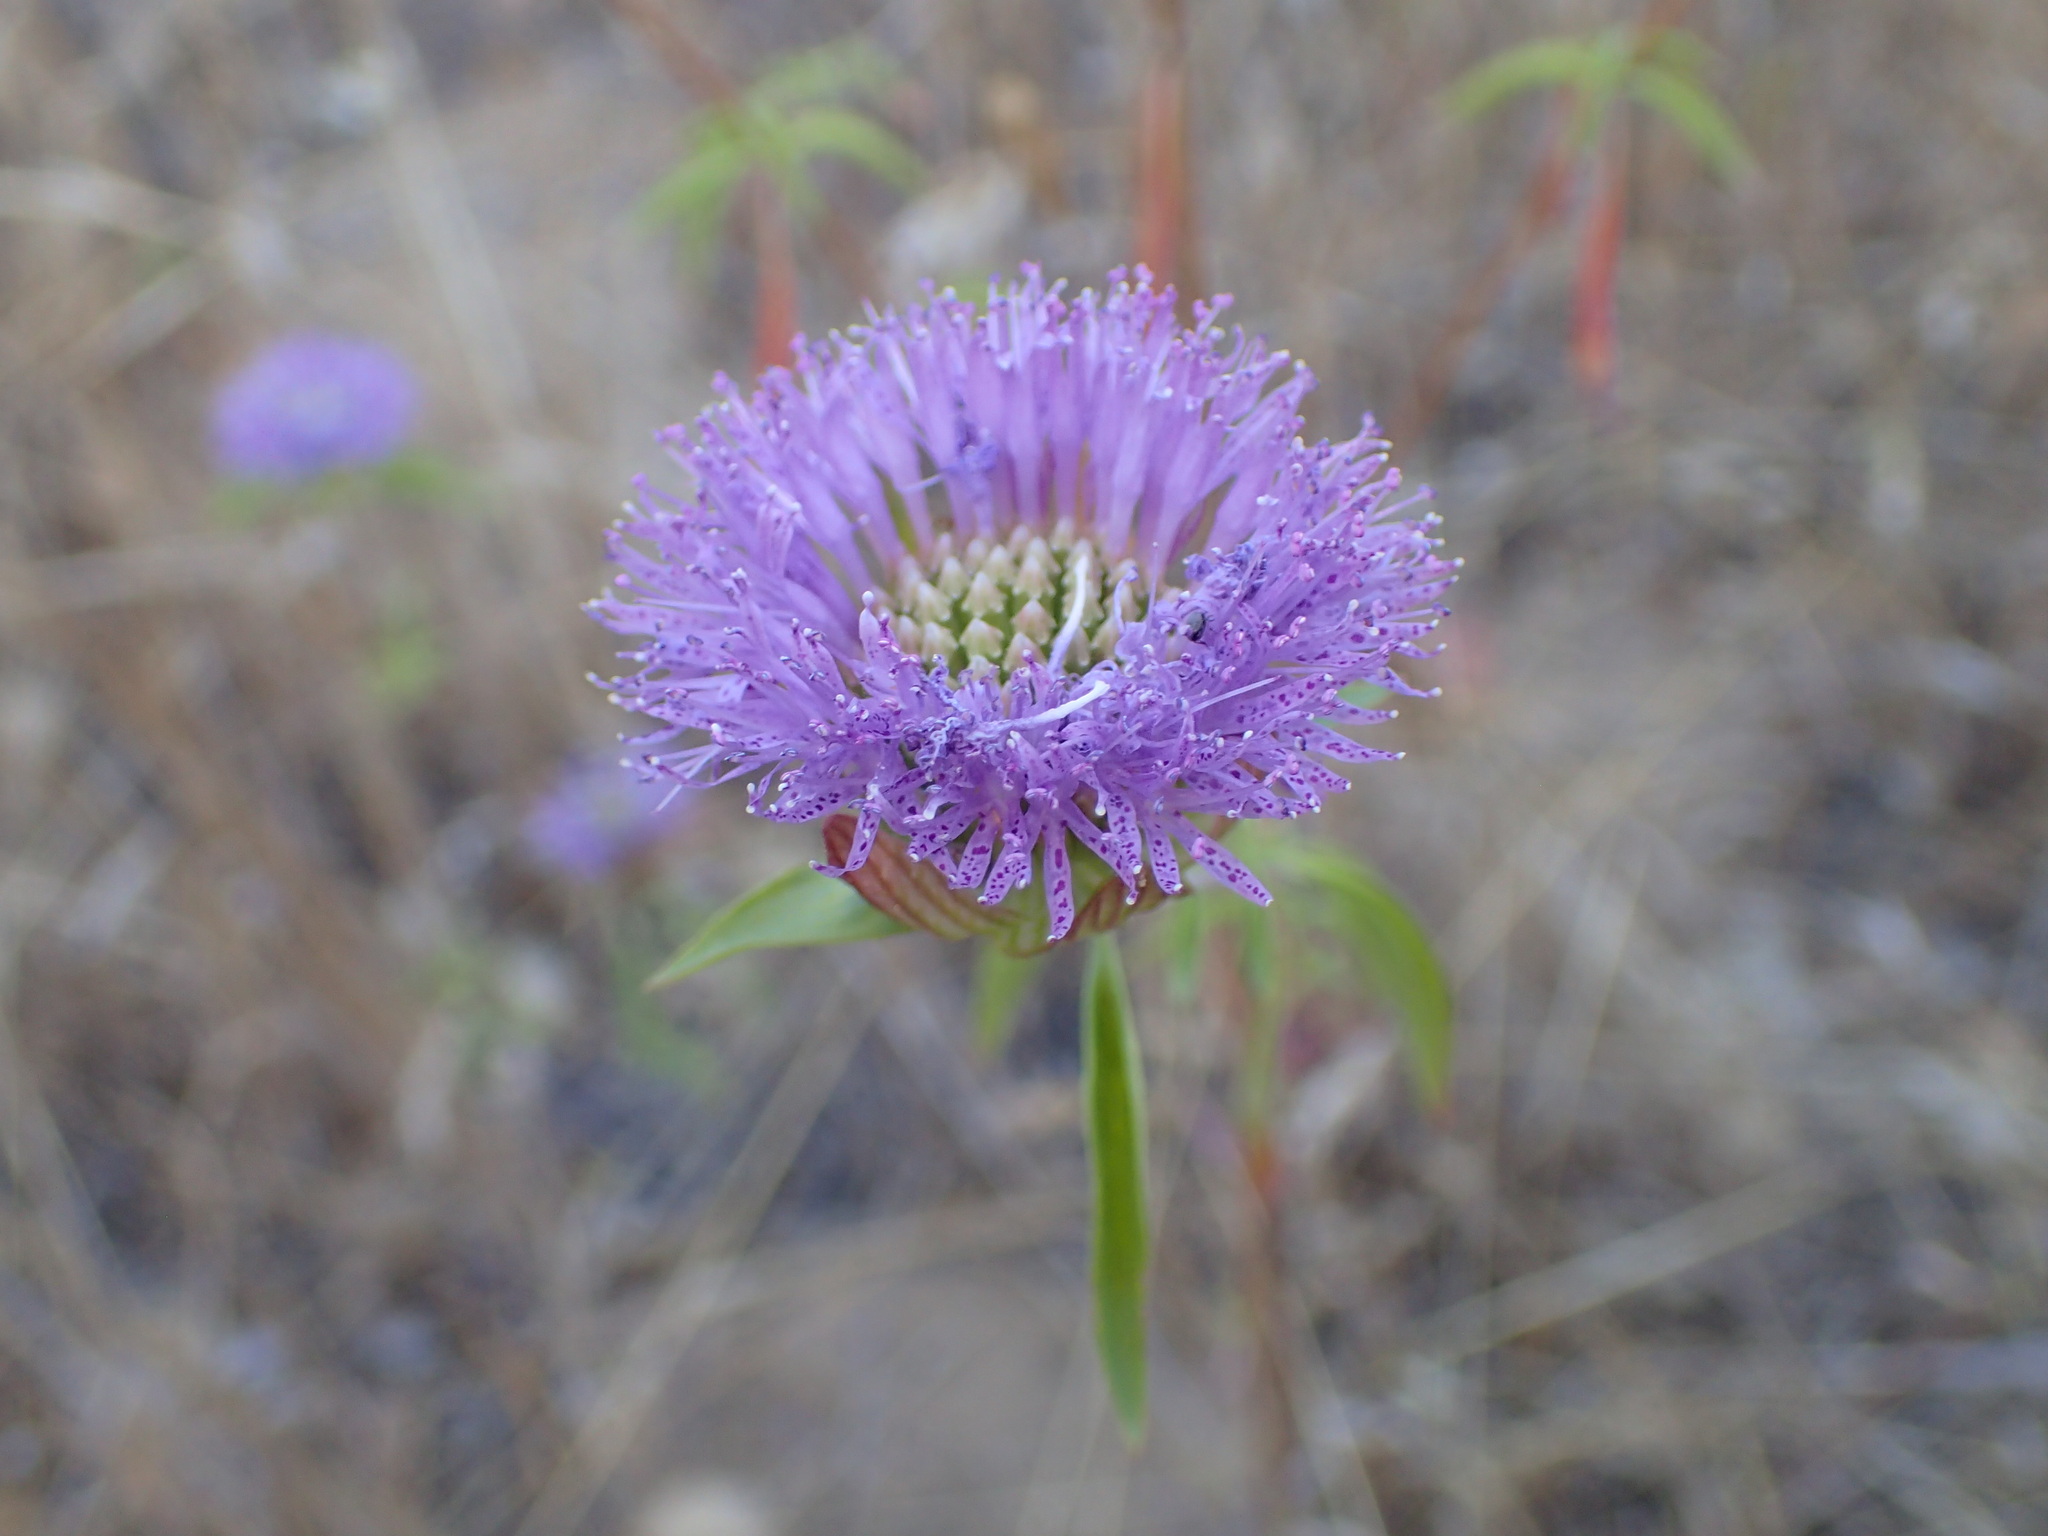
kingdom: Plantae
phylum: Tracheophyta
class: Magnoliopsida
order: Lamiales
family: Lamiaceae
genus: Monardella
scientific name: Monardella breweri
